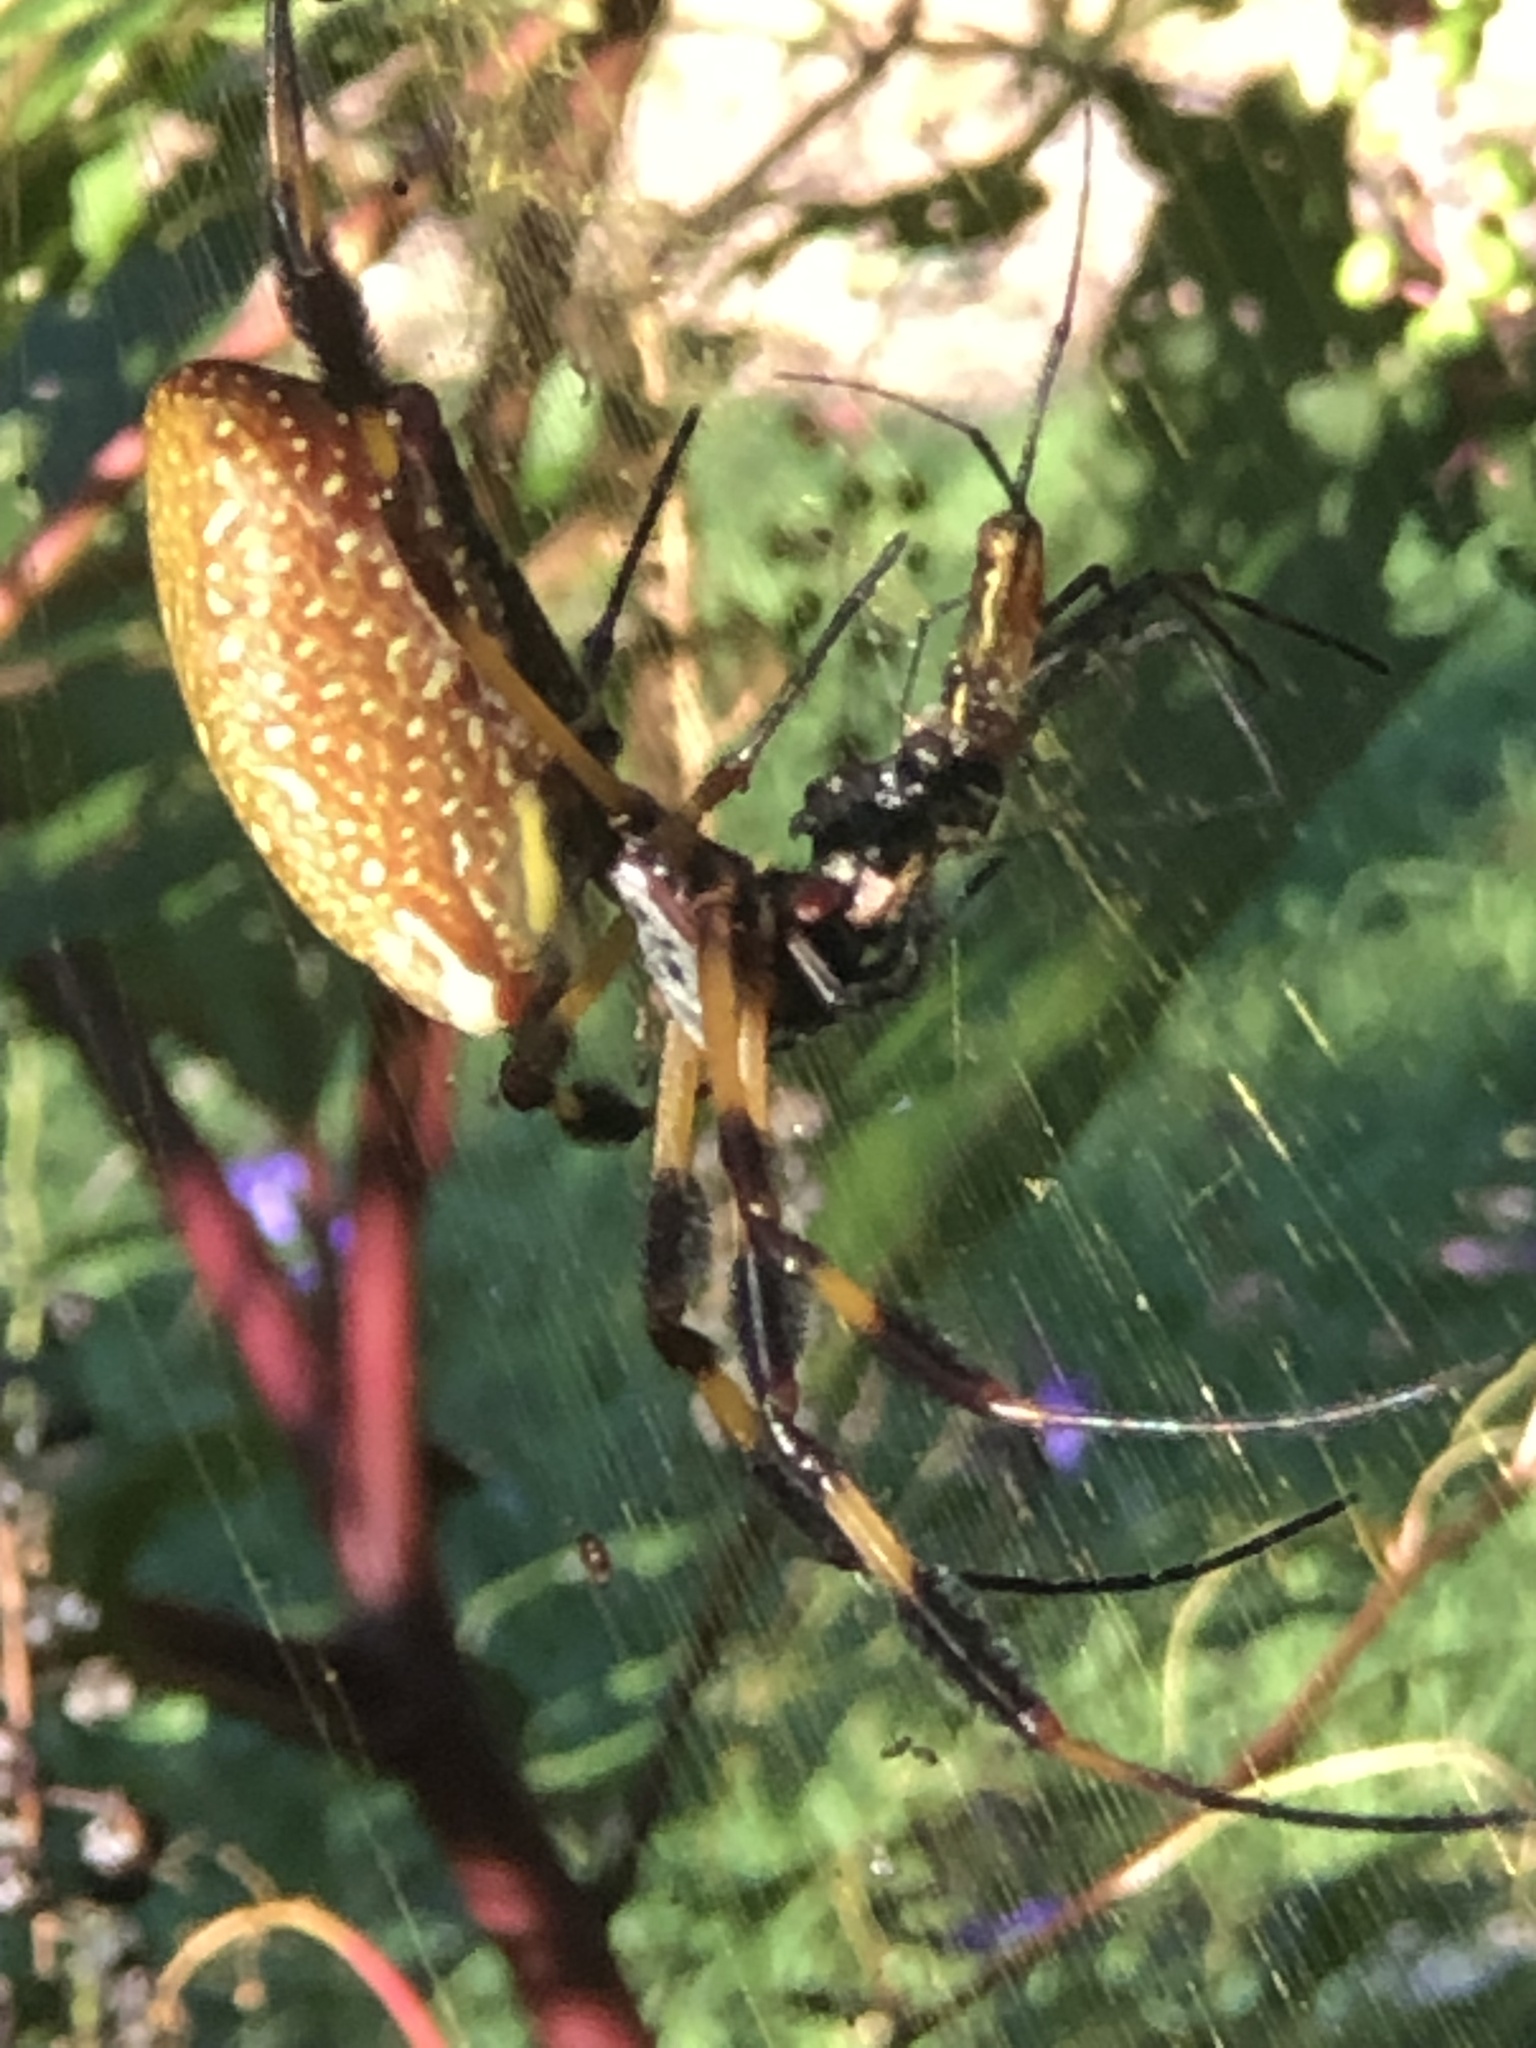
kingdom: Animalia
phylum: Arthropoda
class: Arachnida
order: Araneae
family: Araneidae
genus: Trichonephila
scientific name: Trichonephila clavipes
